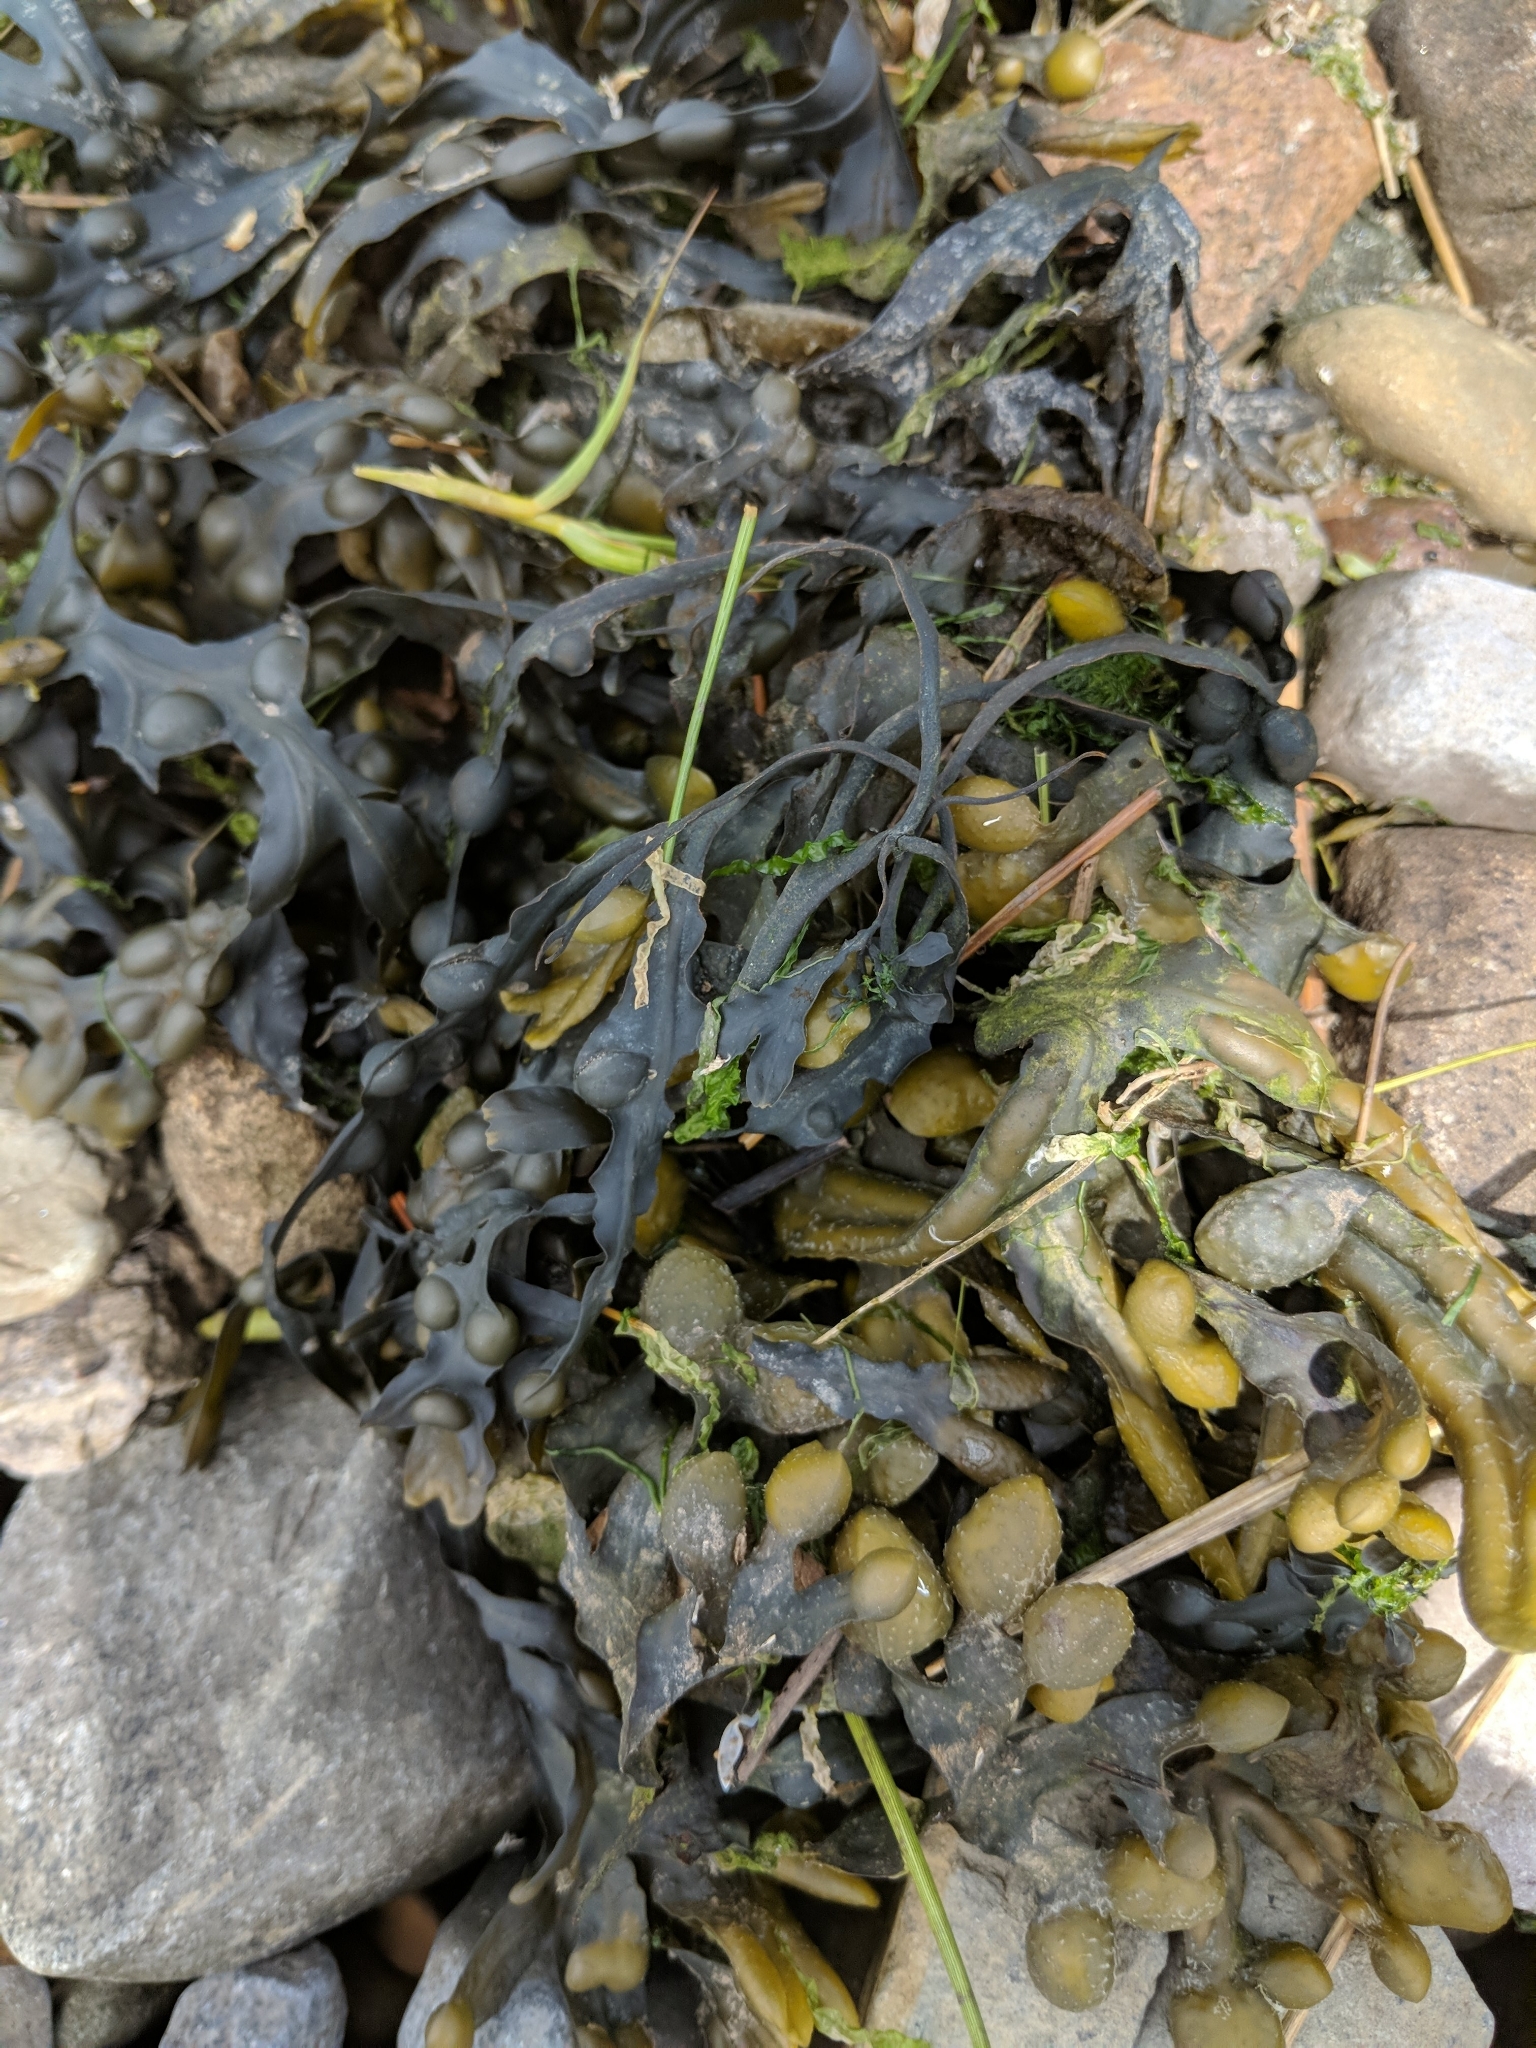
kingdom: Chromista
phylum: Ochrophyta
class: Phaeophyceae
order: Fucales
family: Fucaceae
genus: Fucus
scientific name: Fucus vesiculosus
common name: Bladder wrack
